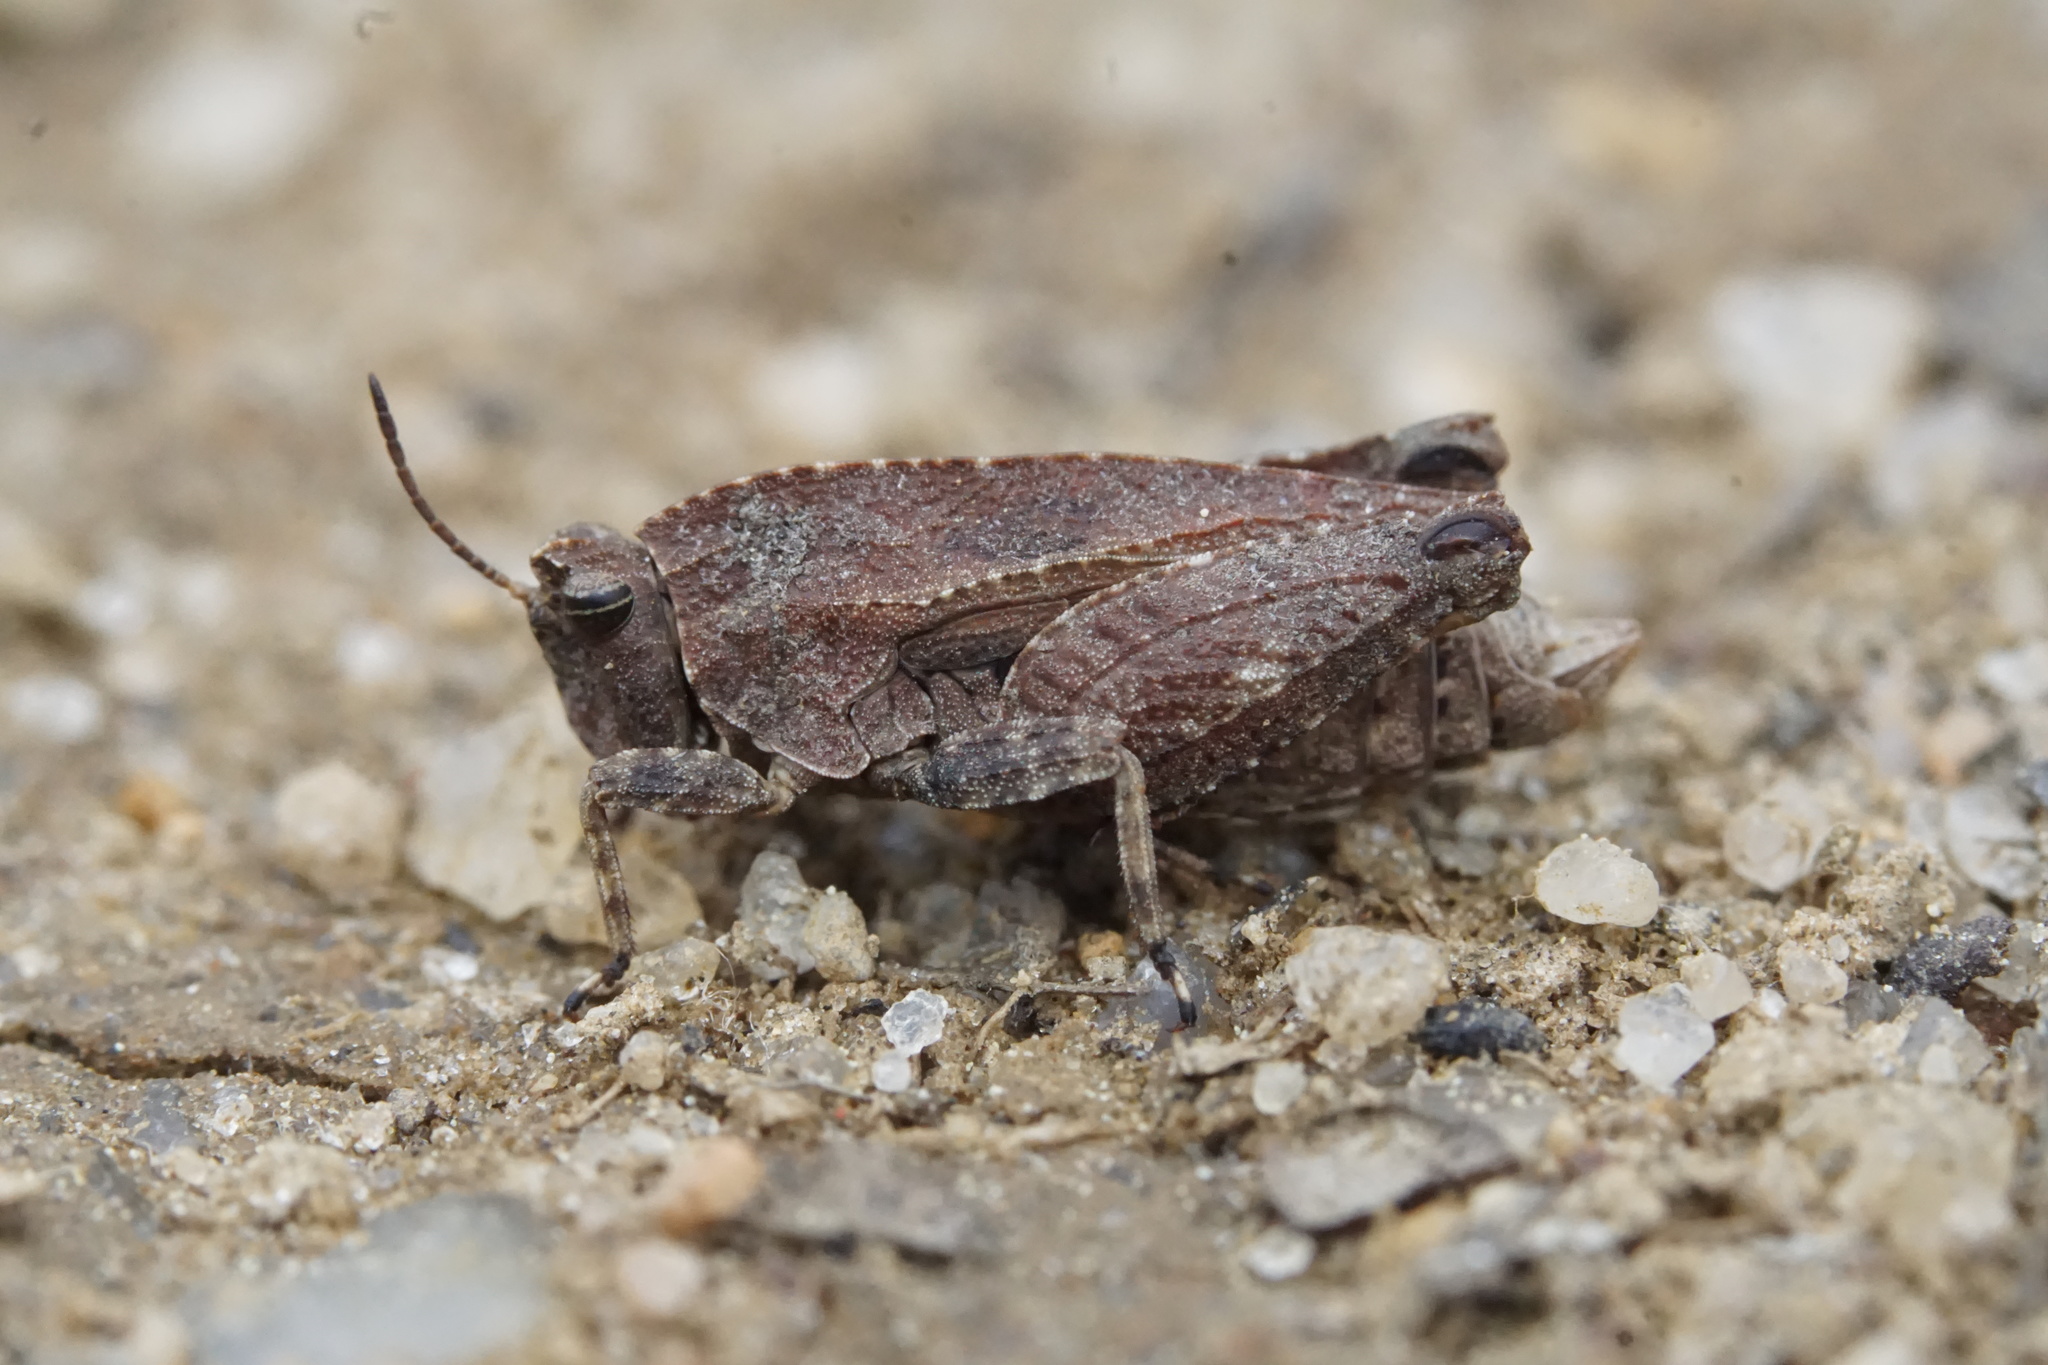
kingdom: Animalia
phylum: Arthropoda
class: Insecta
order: Orthoptera
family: Tetrigidae
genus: Nomotettix
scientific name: Nomotettix cristatus
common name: Crested grouse locust
